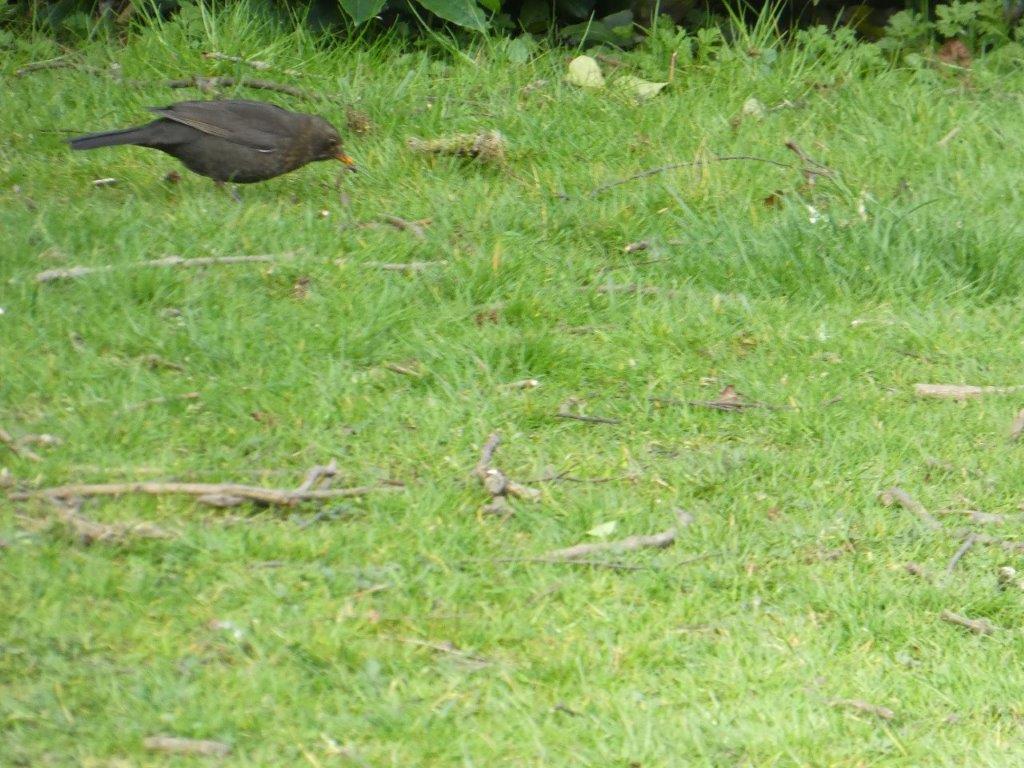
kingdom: Animalia
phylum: Chordata
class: Aves
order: Passeriformes
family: Turdidae
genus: Turdus
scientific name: Turdus merula
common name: Common blackbird
